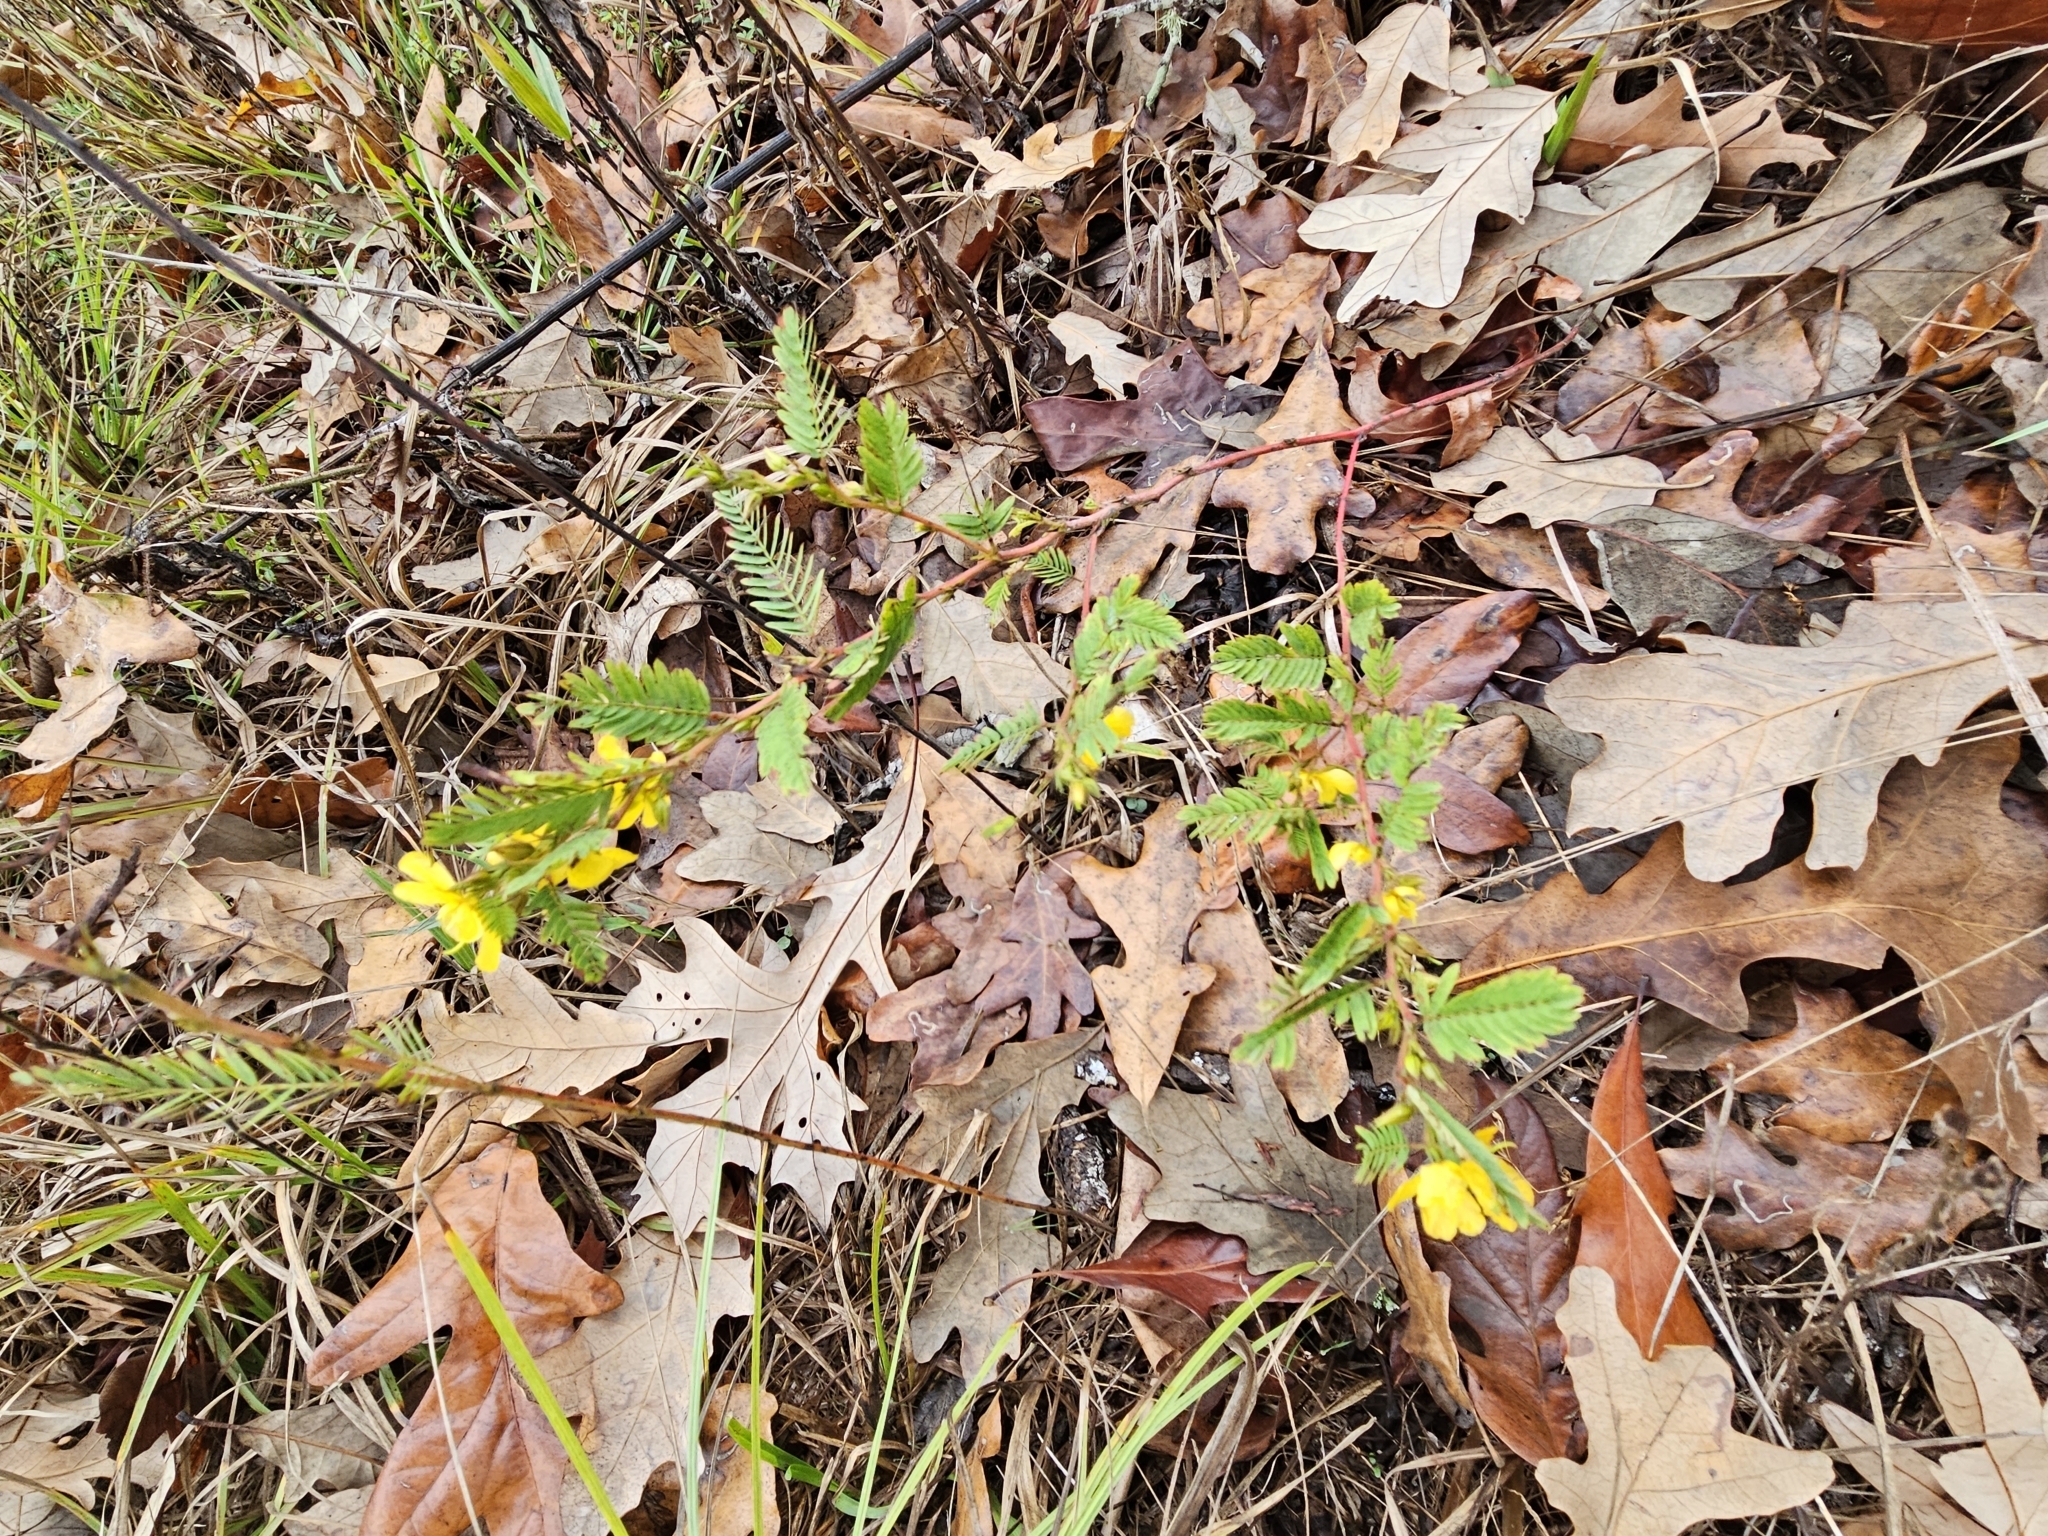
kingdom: Plantae
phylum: Tracheophyta
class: Magnoliopsida
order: Fabales
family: Fabaceae
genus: Chamaecrista
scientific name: Chamaecrista fasciculata
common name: Golden cassia
